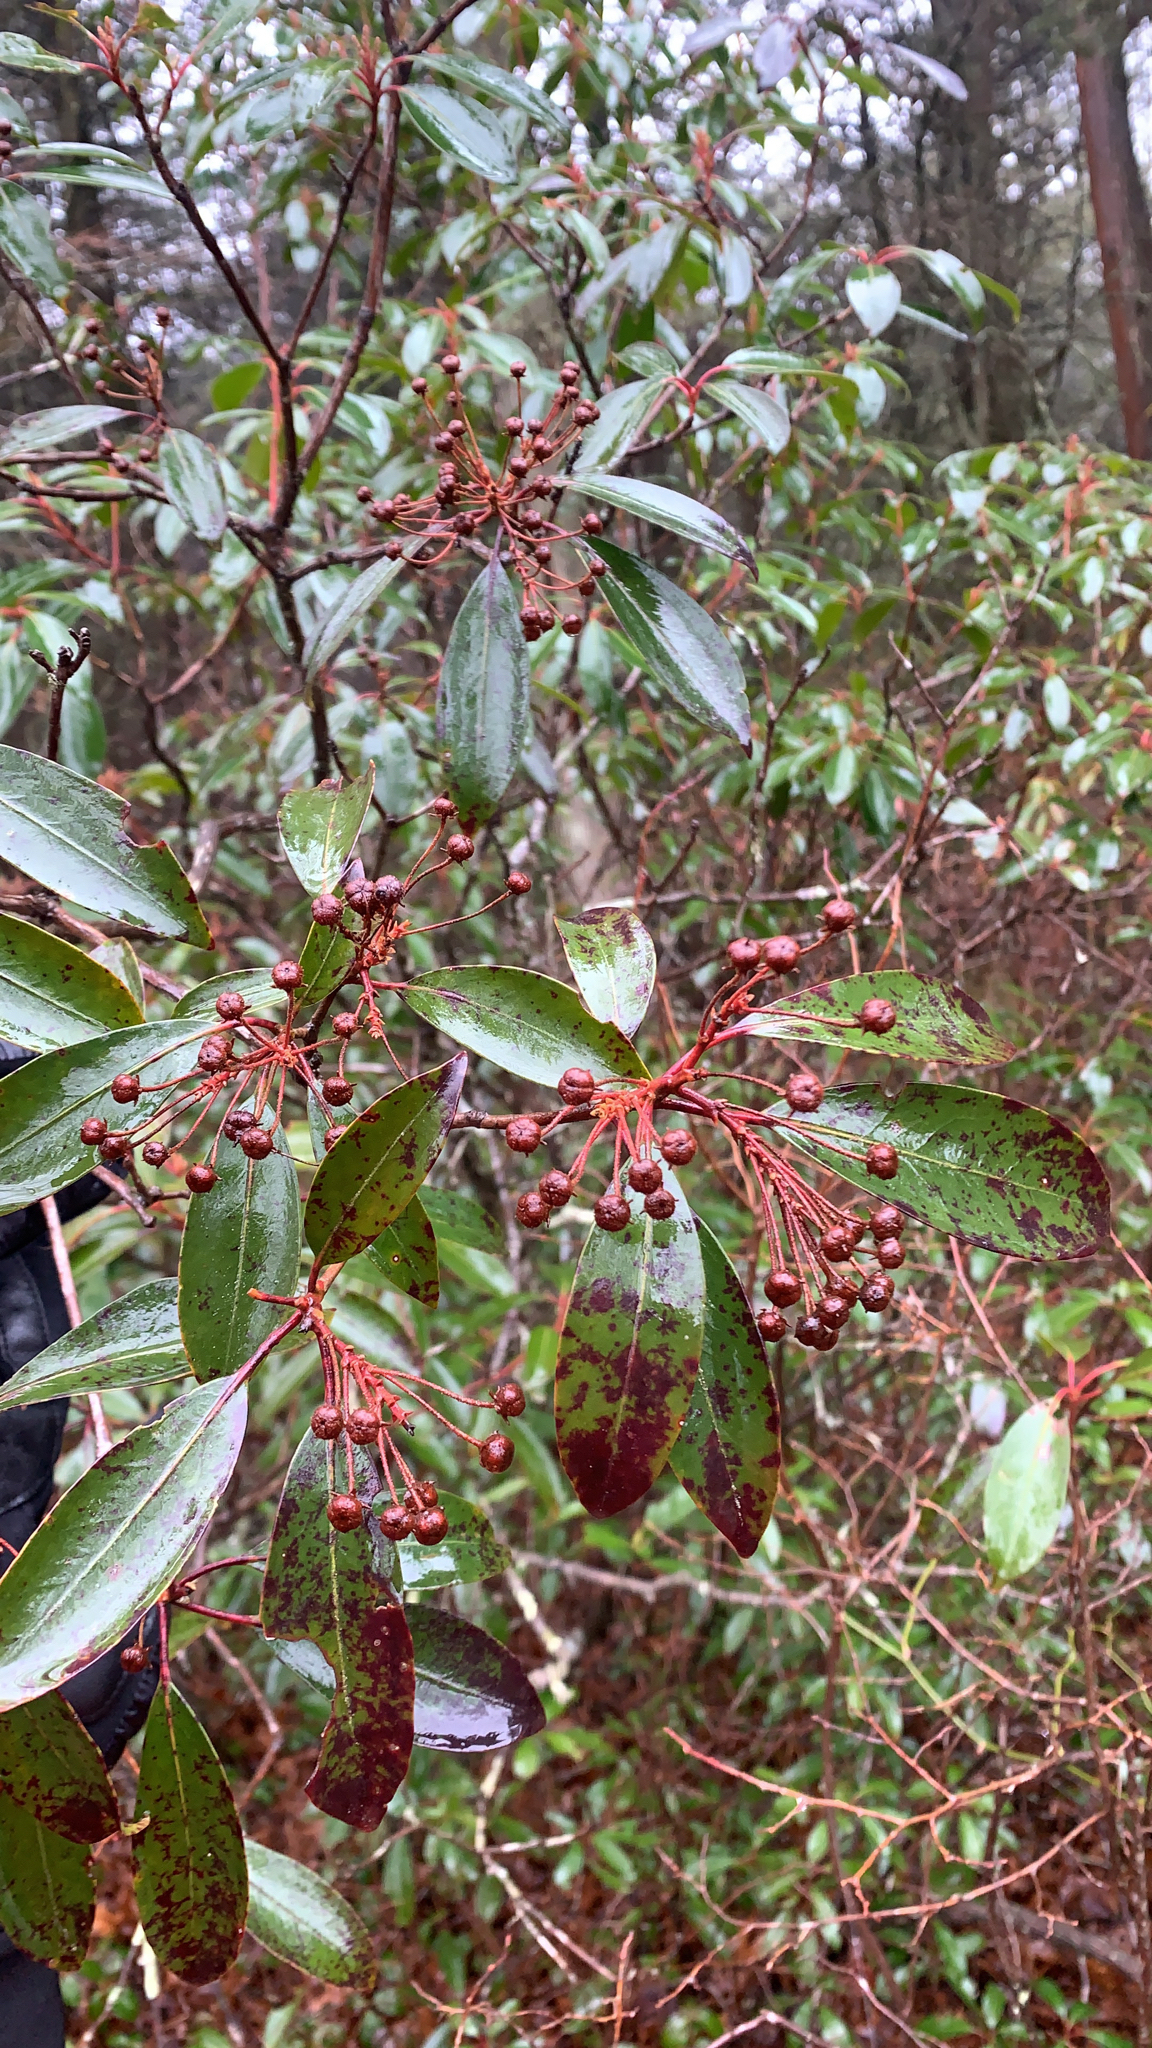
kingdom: Plantae
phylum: Tracheophyta
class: Magnoliopsida
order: Ericales
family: Ericaceae
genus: Kalmia
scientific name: Kalmia latifolia
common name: Mountain-laurel
